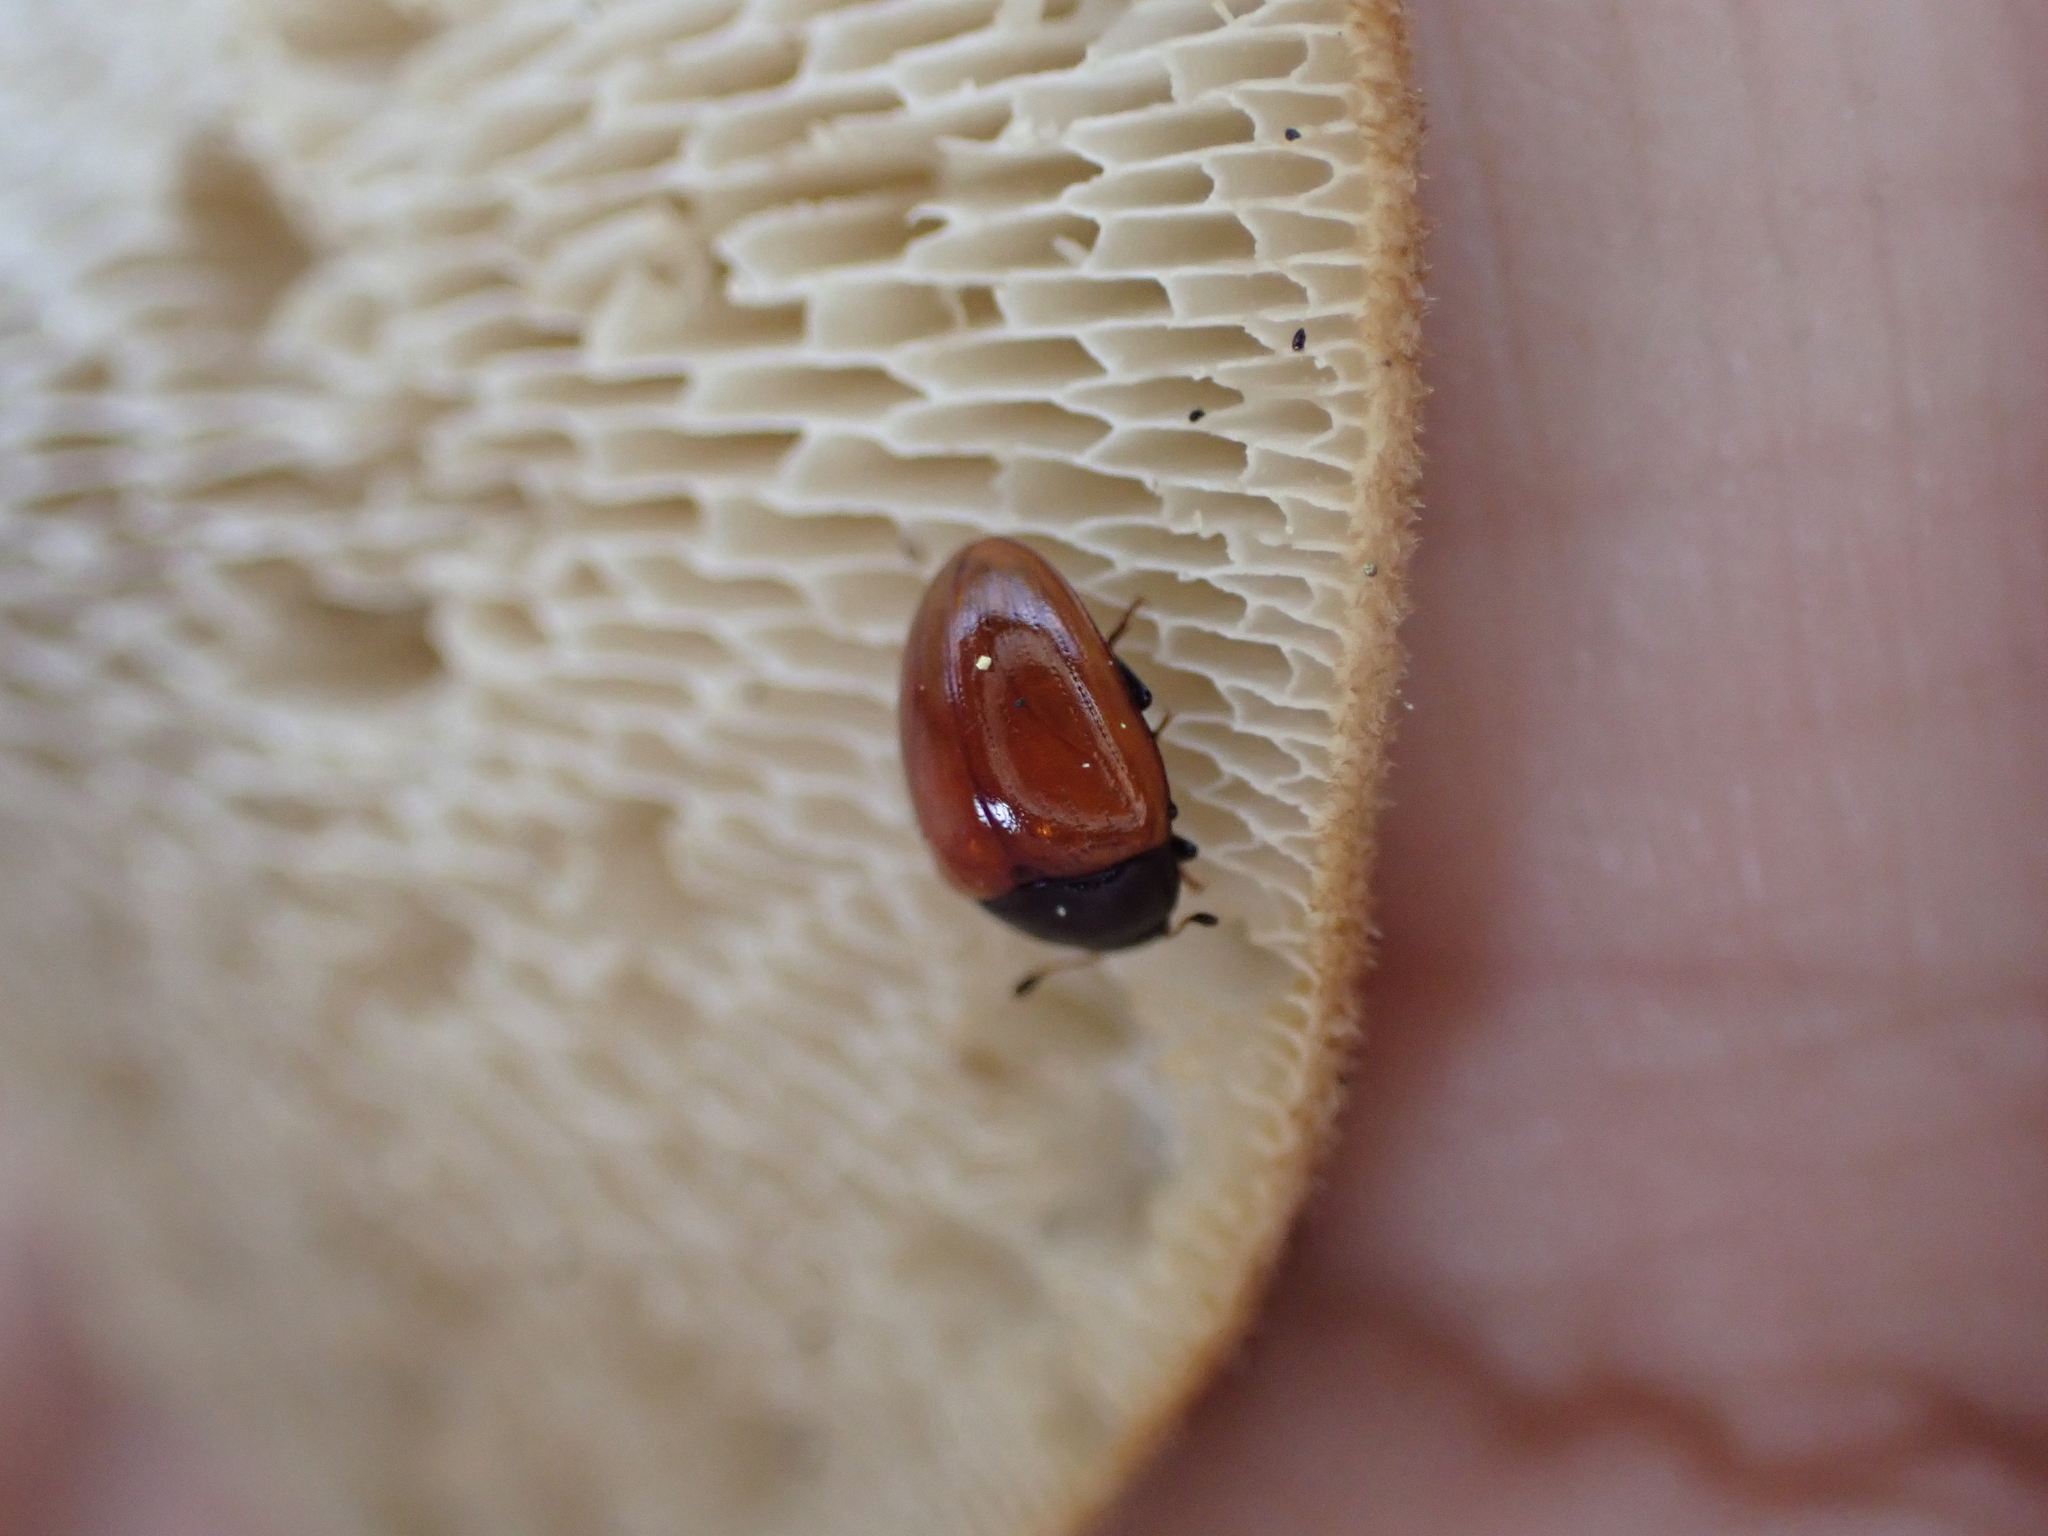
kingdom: Animalia
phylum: Arthropoda
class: Insecta
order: Coleoptera
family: Erotylidae
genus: Tritoma
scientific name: Tritoma sanguinipennis
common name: Red-winged tritoma
